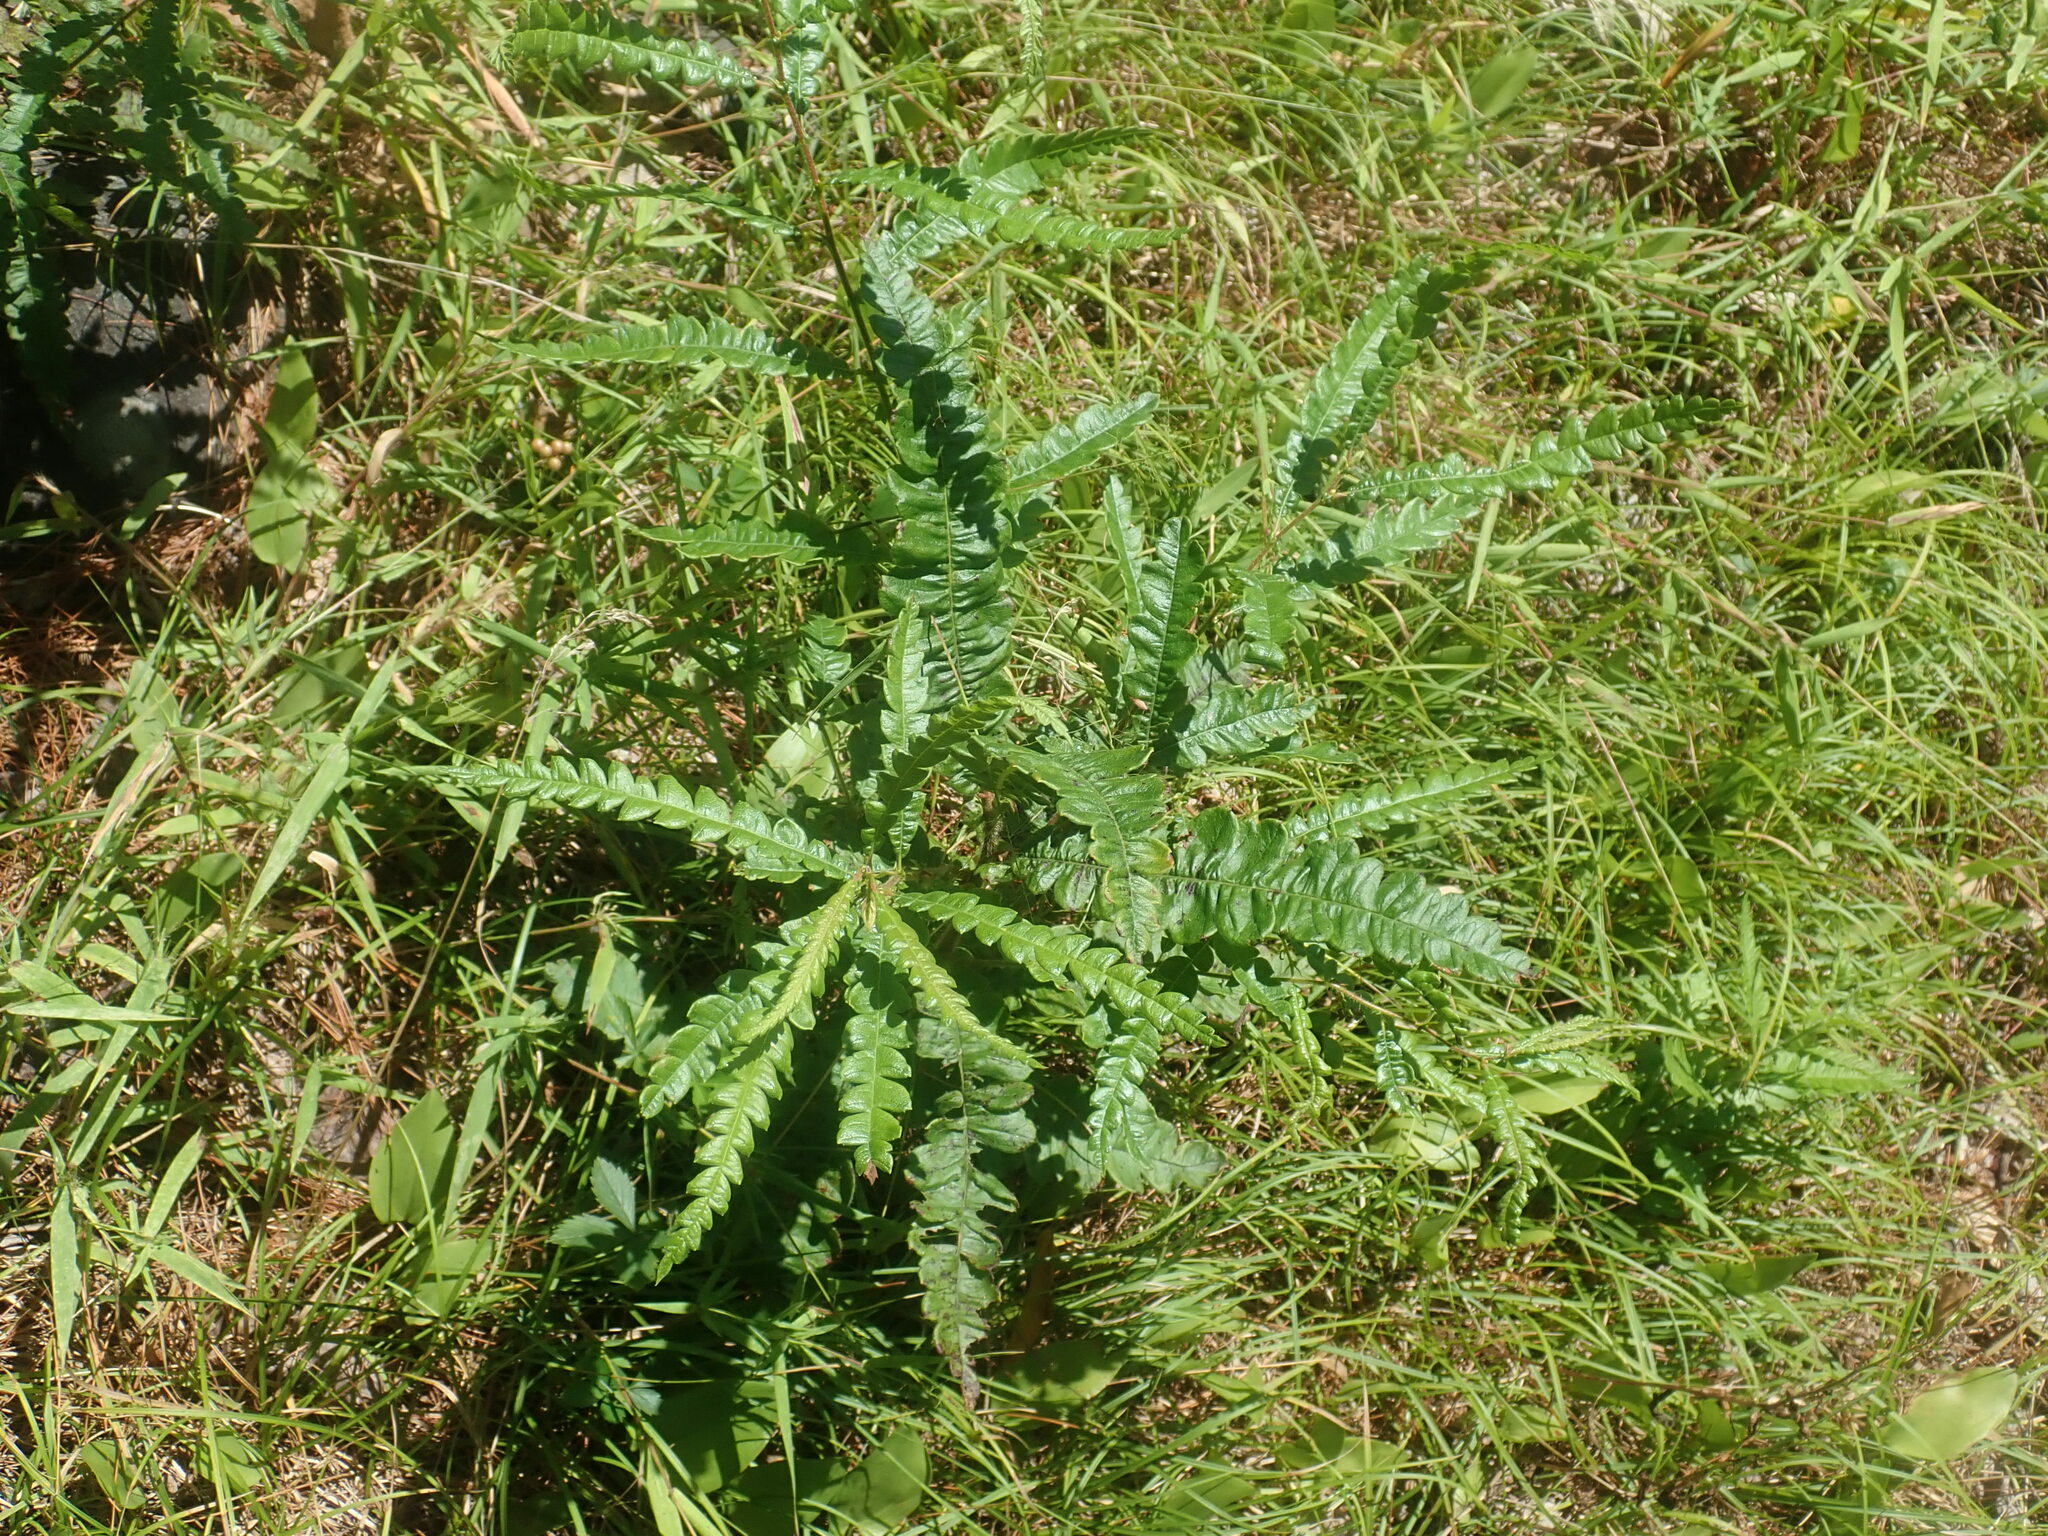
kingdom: Plantae
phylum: Tracheophyta
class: Magnoliopsida
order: Fagales
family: Myricaceae
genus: Comptonia
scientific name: Comptonia peregrina
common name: Sweet-fern
